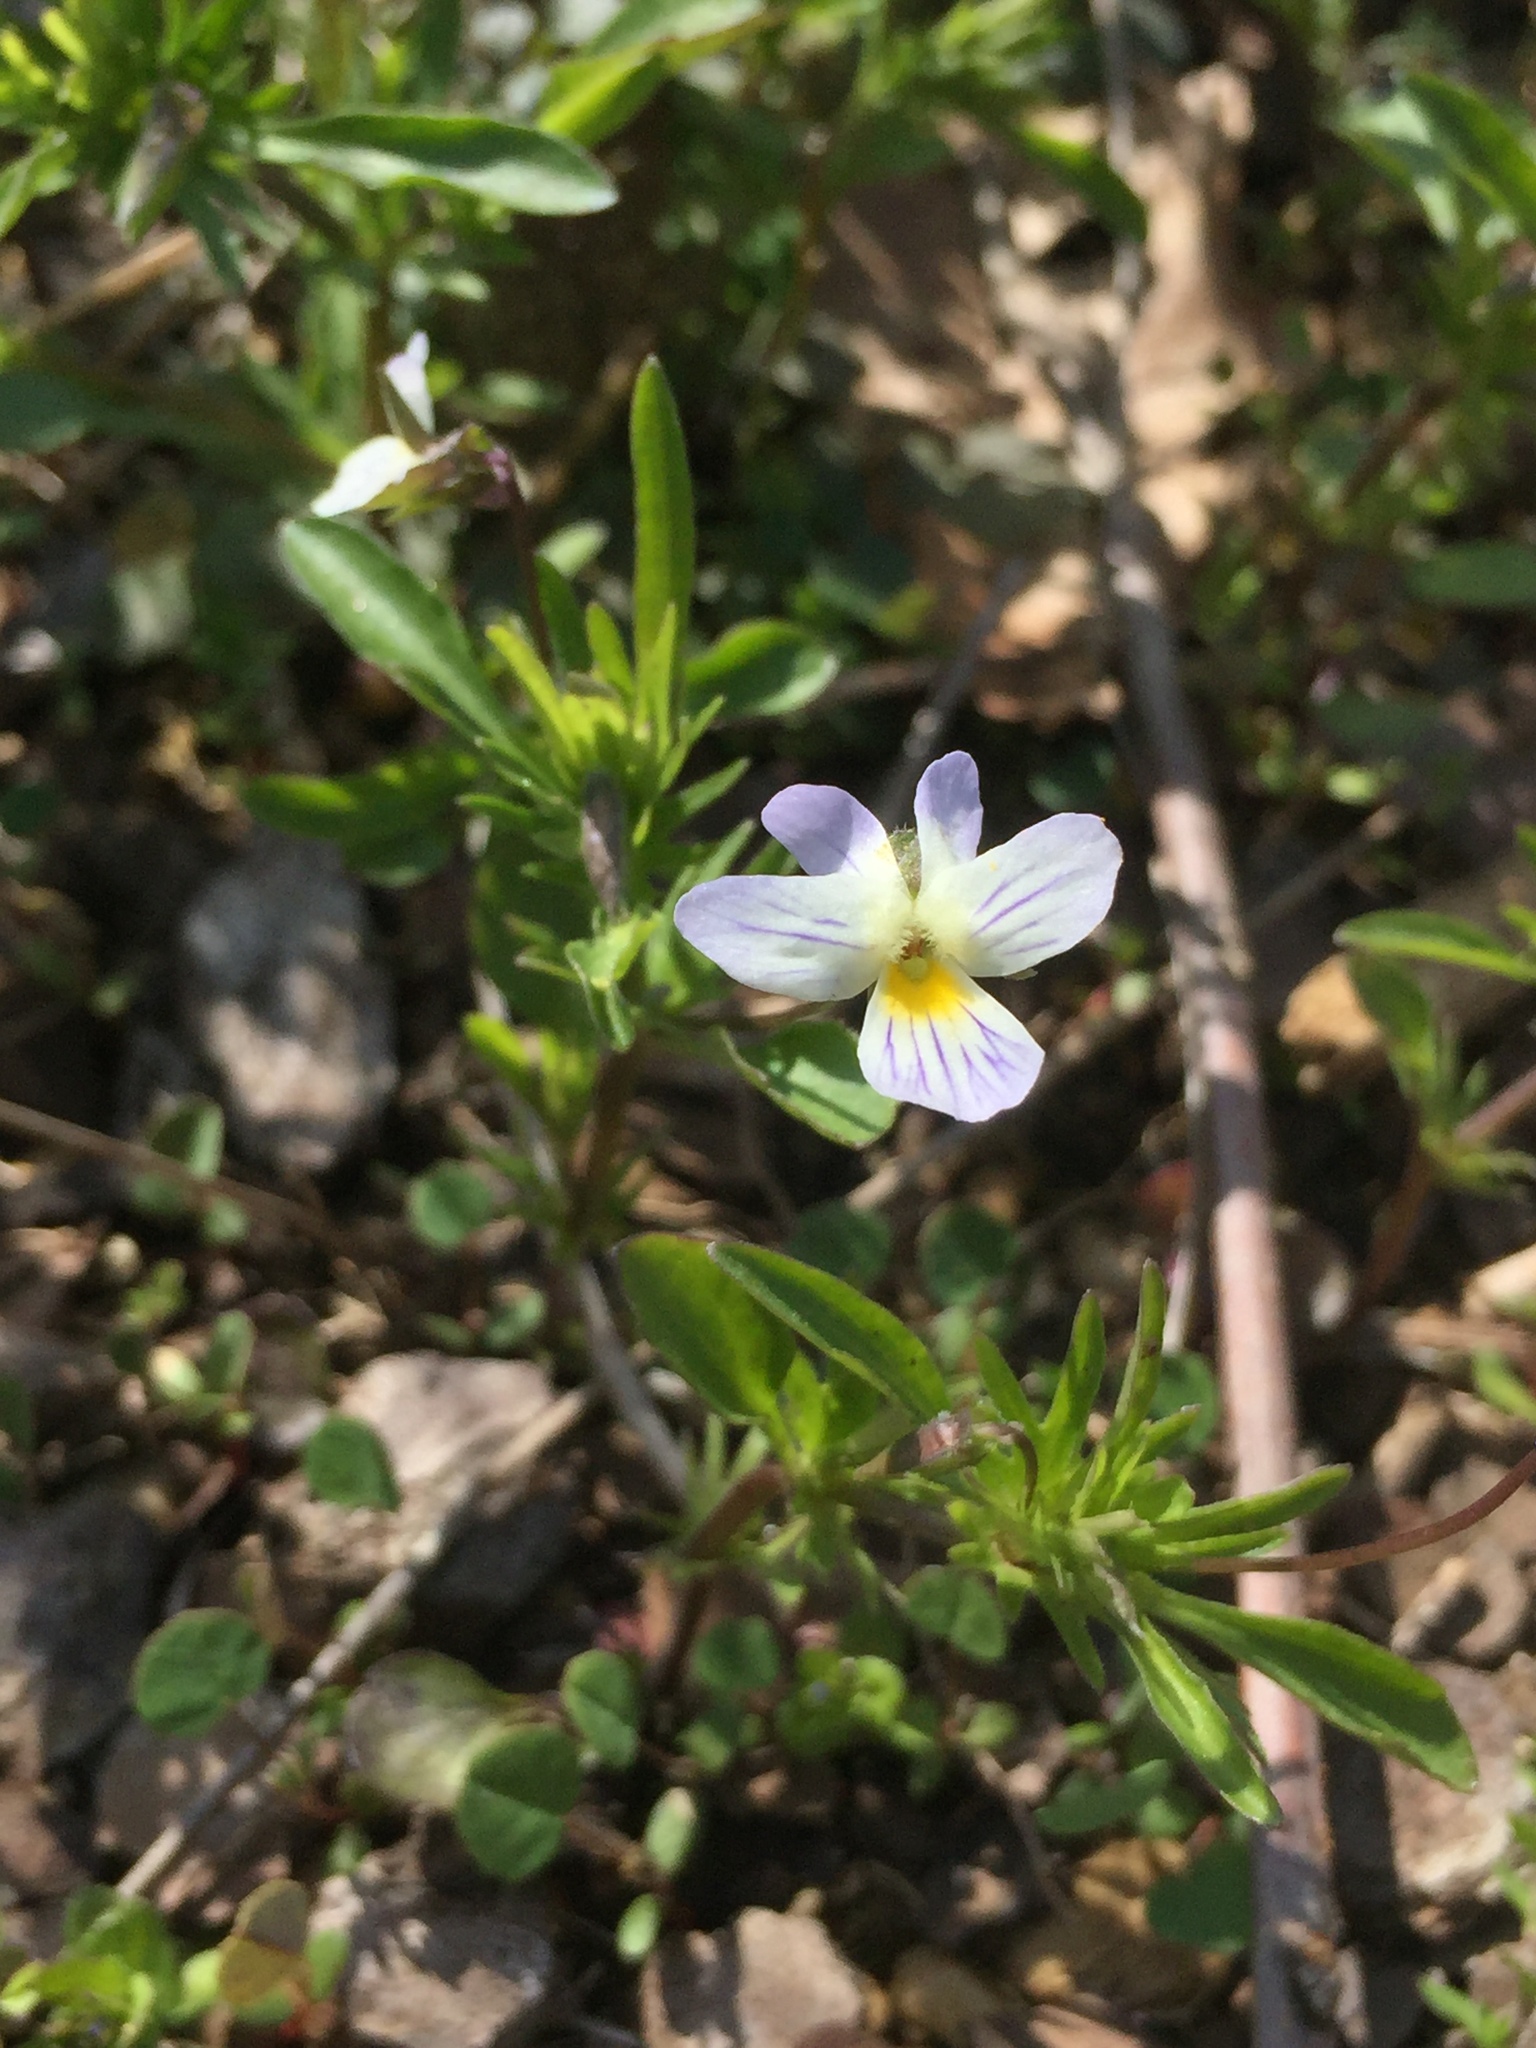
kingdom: Plantae
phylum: Tracheophyta
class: Magnoliopsida
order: Malpighiales
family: Violaceae
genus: Viola
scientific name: Viola rafinesquei
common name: American field pansy
